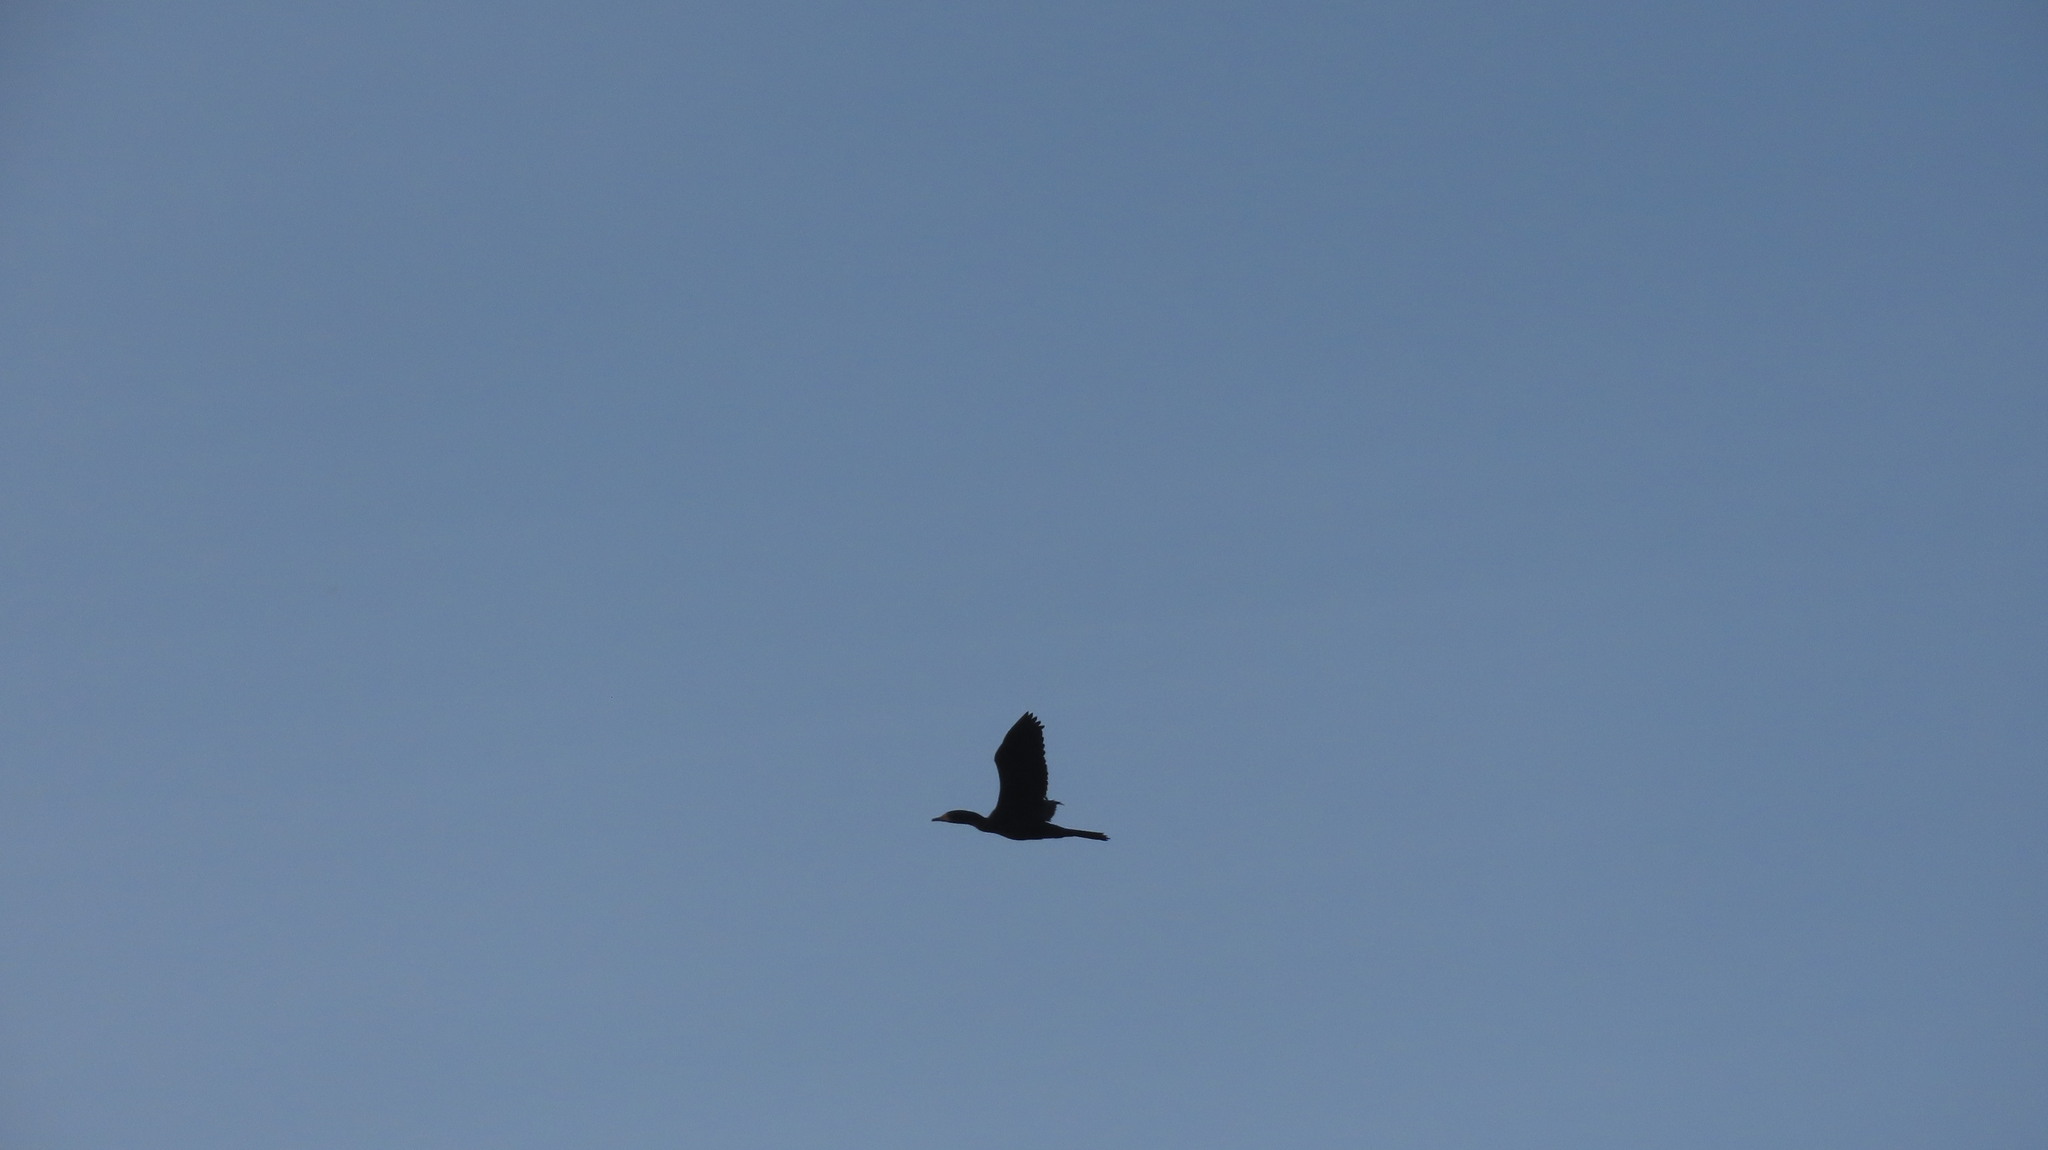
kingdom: Animalia
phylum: Chordata
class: Aves
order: Suliformes
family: Phalacrocoracidae
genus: Microcarbo
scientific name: Microcarbo niger
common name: Little cormorant
